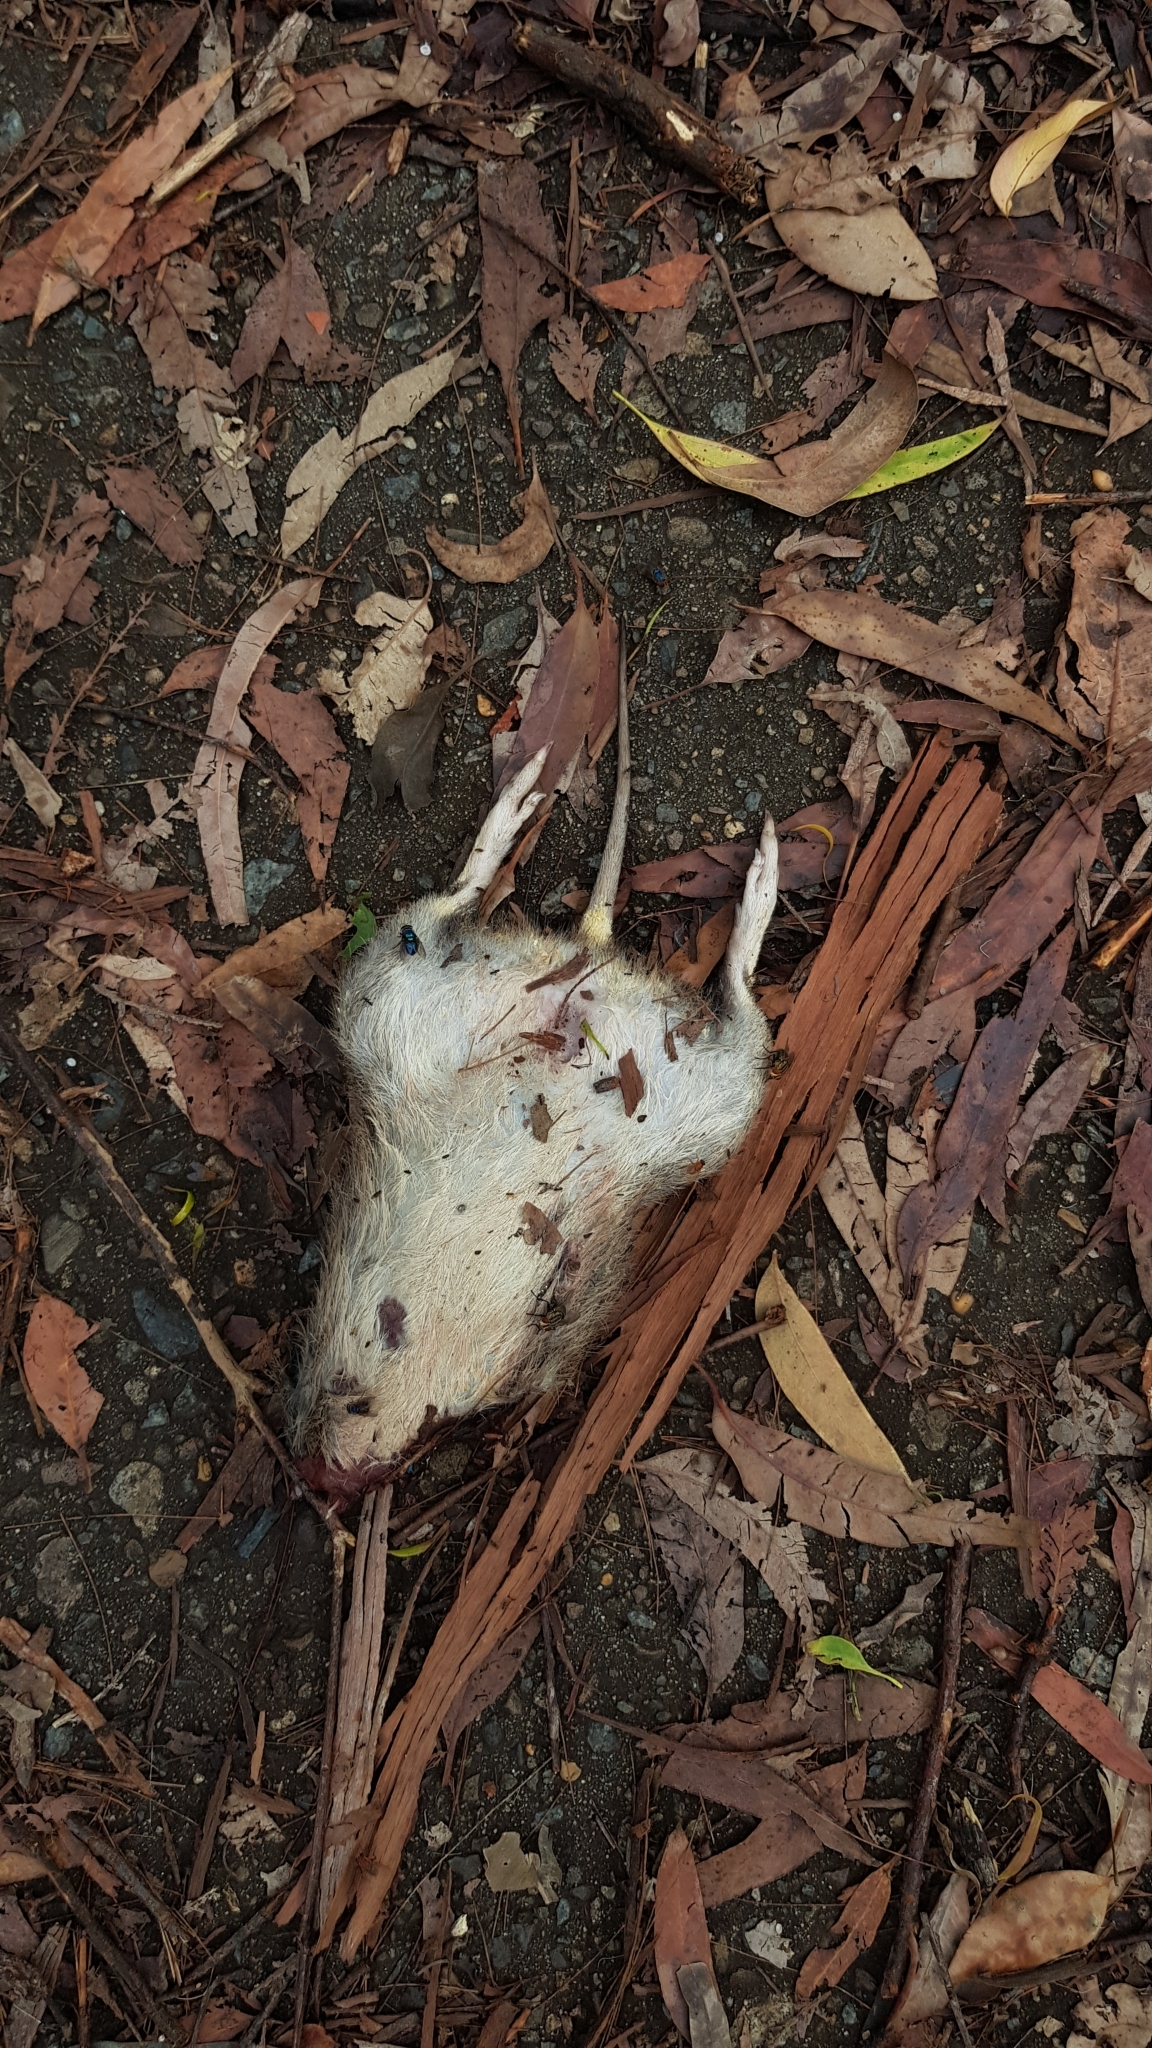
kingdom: Animalia
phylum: Chordata
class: Mammalia
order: Peramelemorphia
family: Peramelidae
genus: Perameles
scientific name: Perameles nasuta
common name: Long-nosed bandicoot
